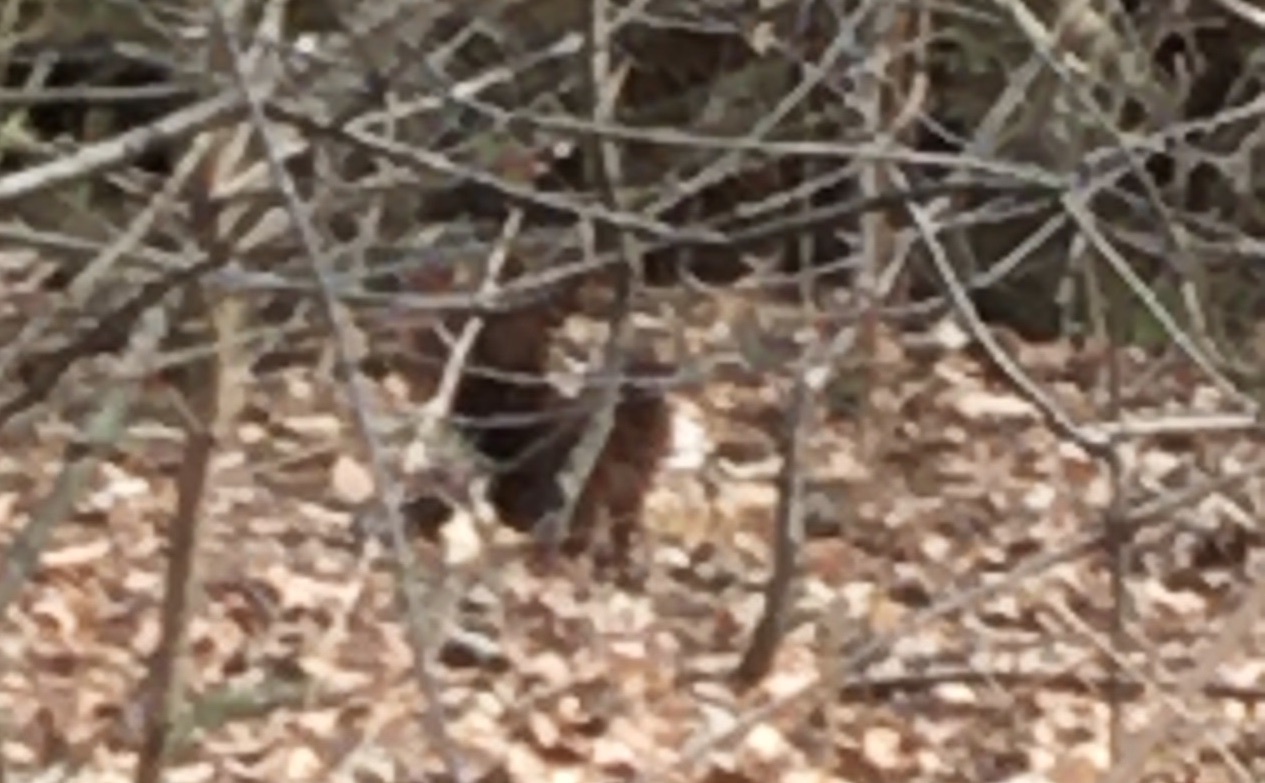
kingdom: Animalia
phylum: Chordata
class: Mammalia
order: Rodentia
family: Sciuridae
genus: Sciurus
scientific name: Sciurus vulgaris
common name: Eurasian red squirrel
